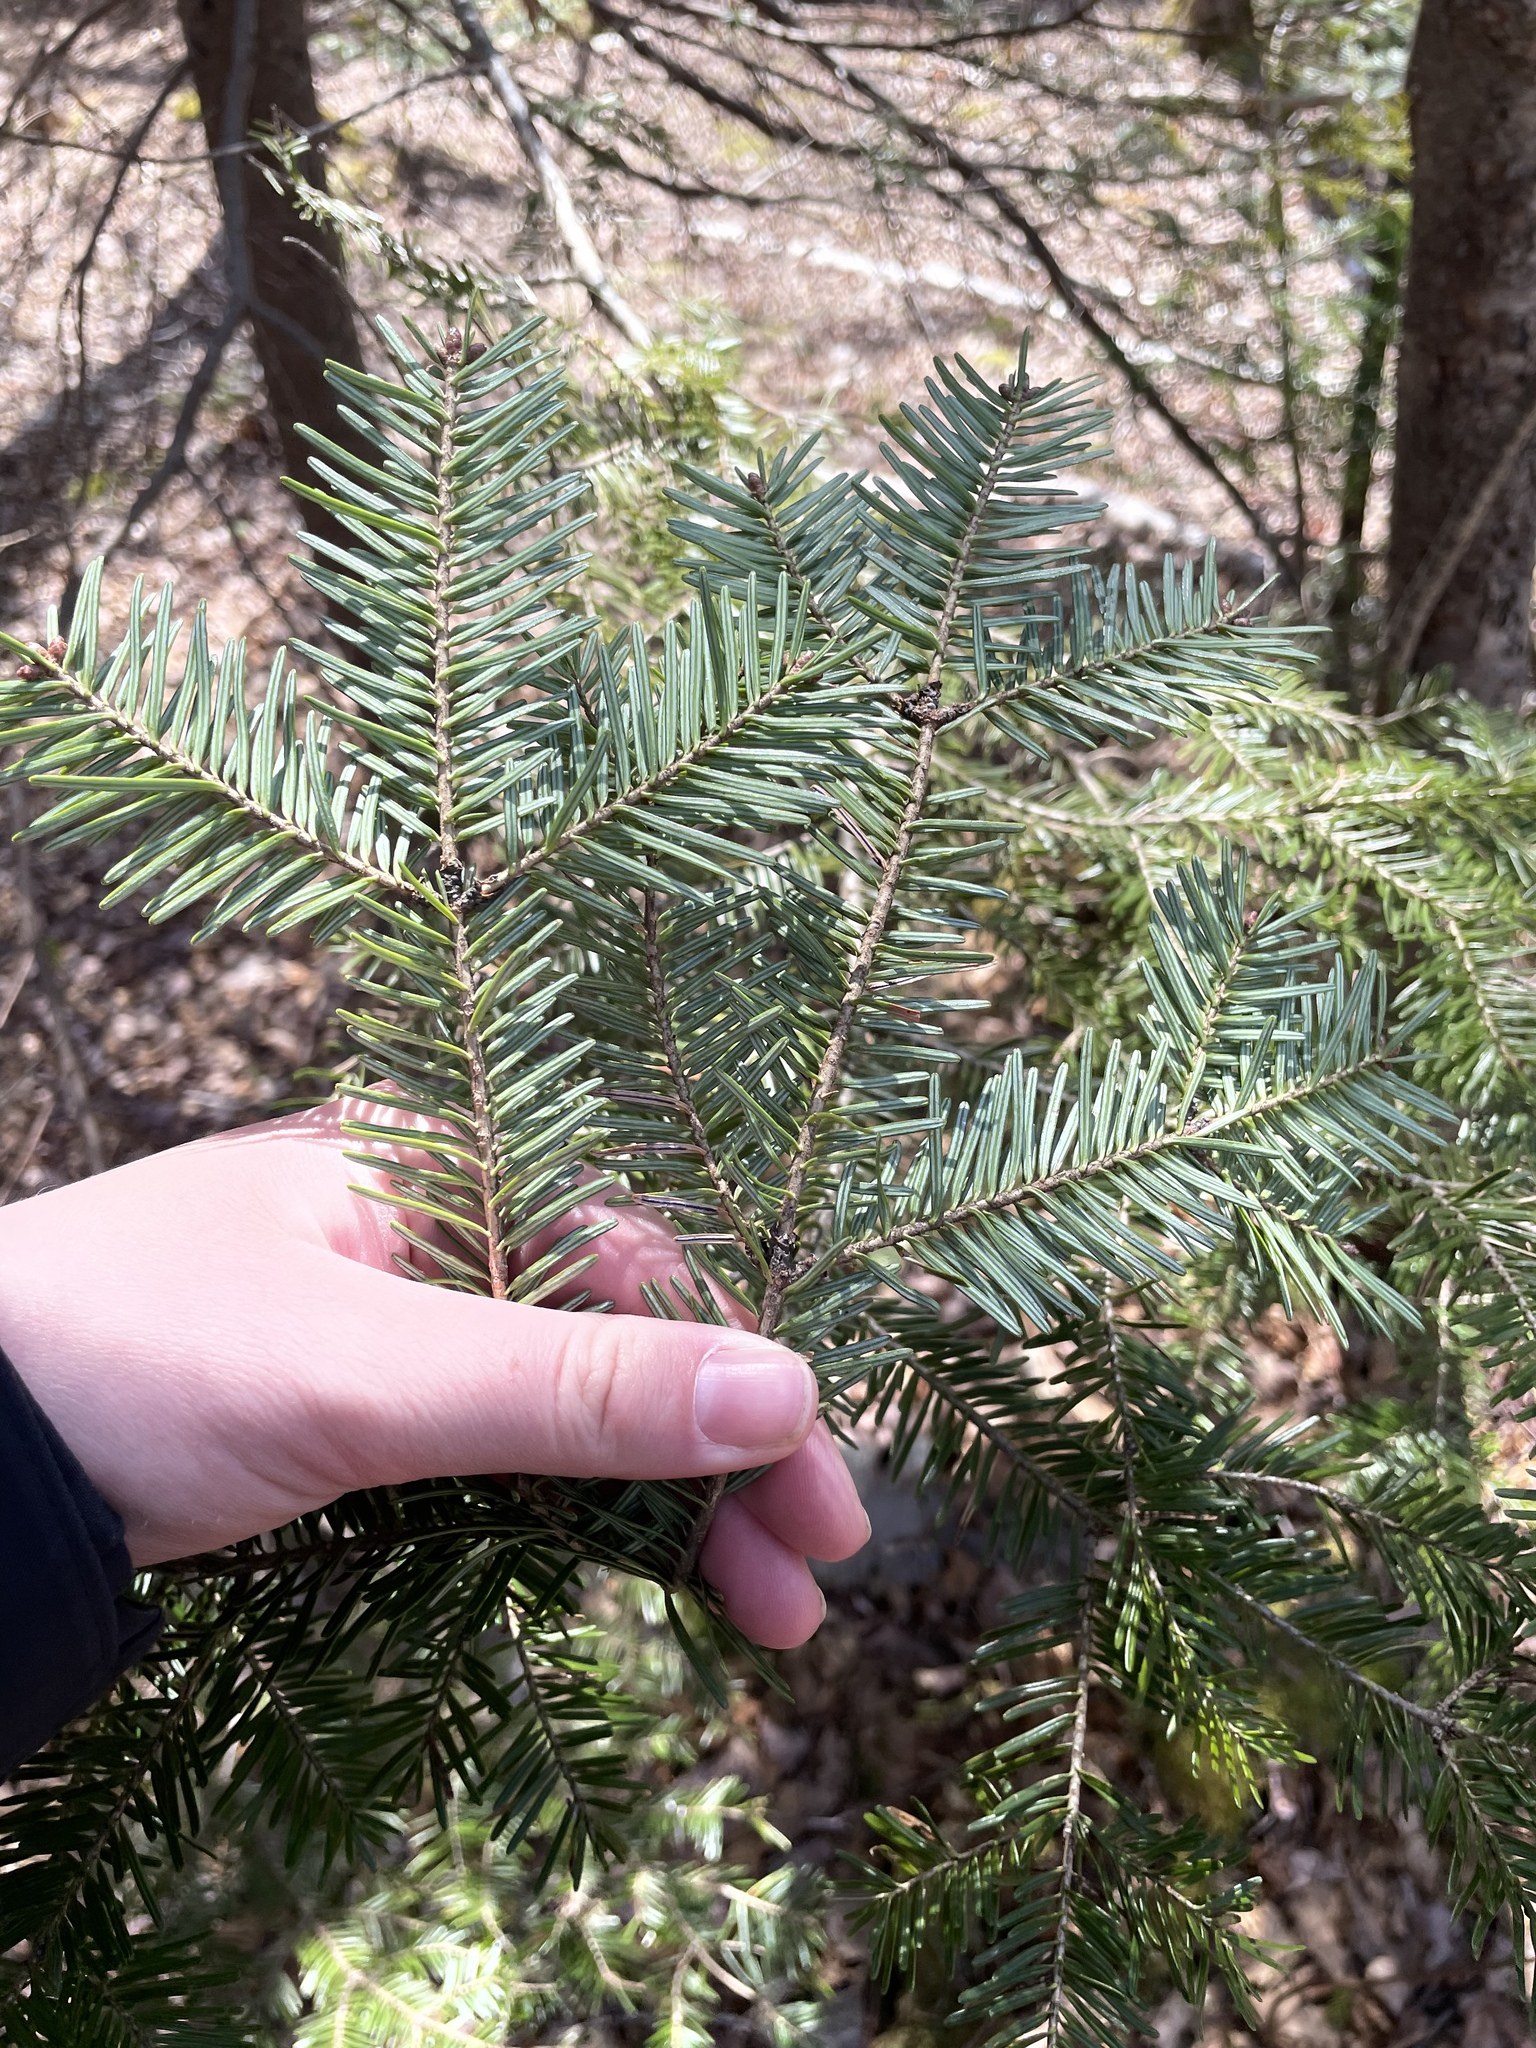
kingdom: Plantae
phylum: Tracheophyta
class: Pinopsida
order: Pinales
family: Pinaceae
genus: Abies
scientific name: Abies balsamea
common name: Balsam fir
